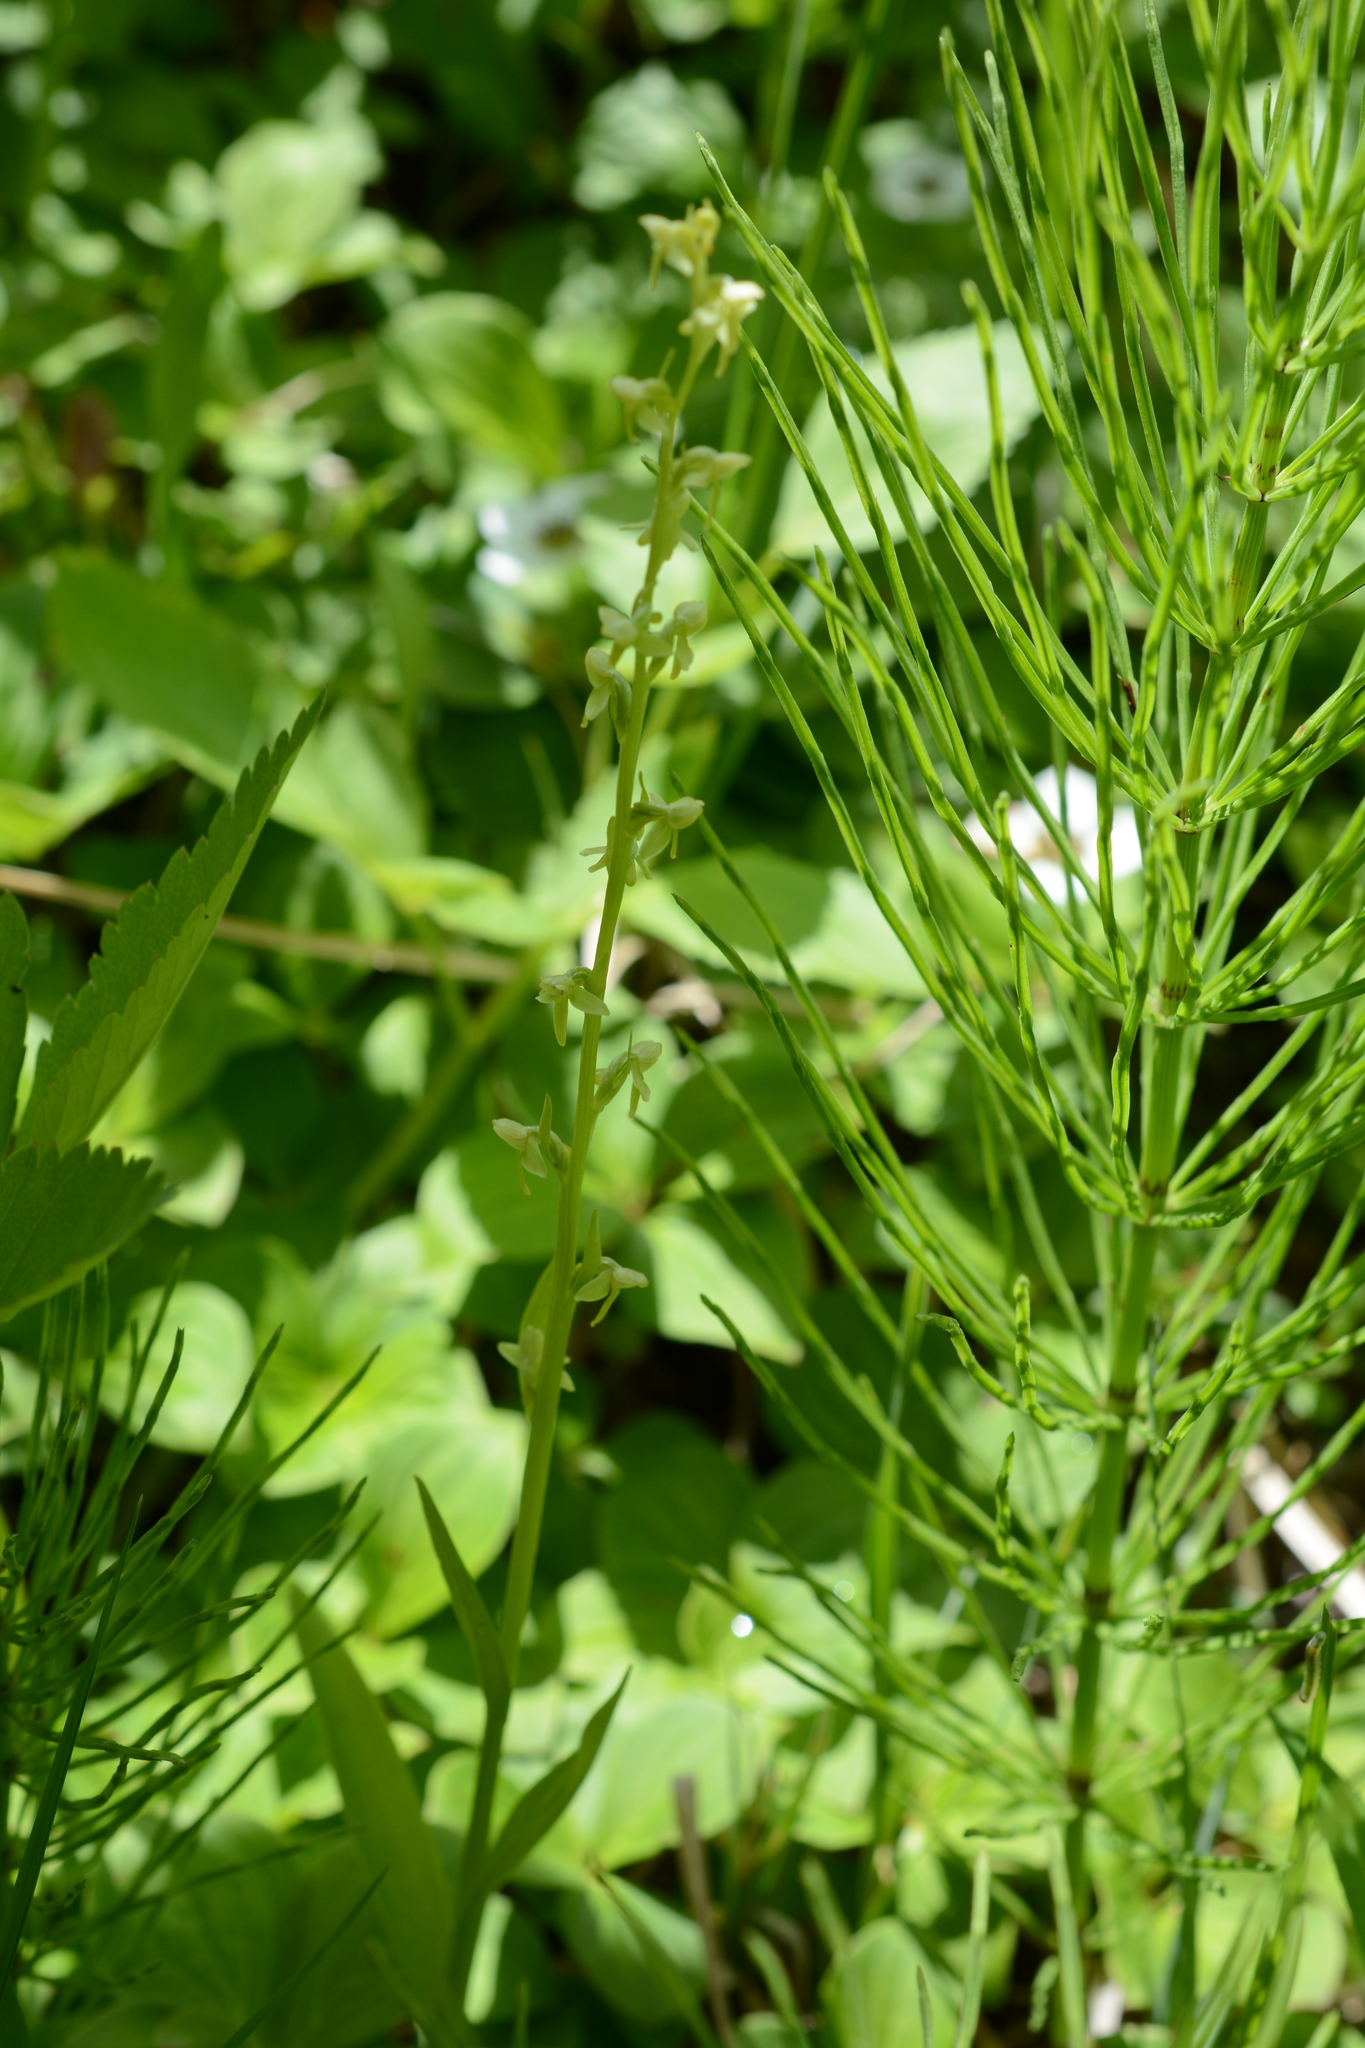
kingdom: Plantae
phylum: Tracheophyta
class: Liliopsida
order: Asparagales
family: Orchidaceae
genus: Platanthera
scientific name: Platanthera stricta
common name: Slender bog orchid
